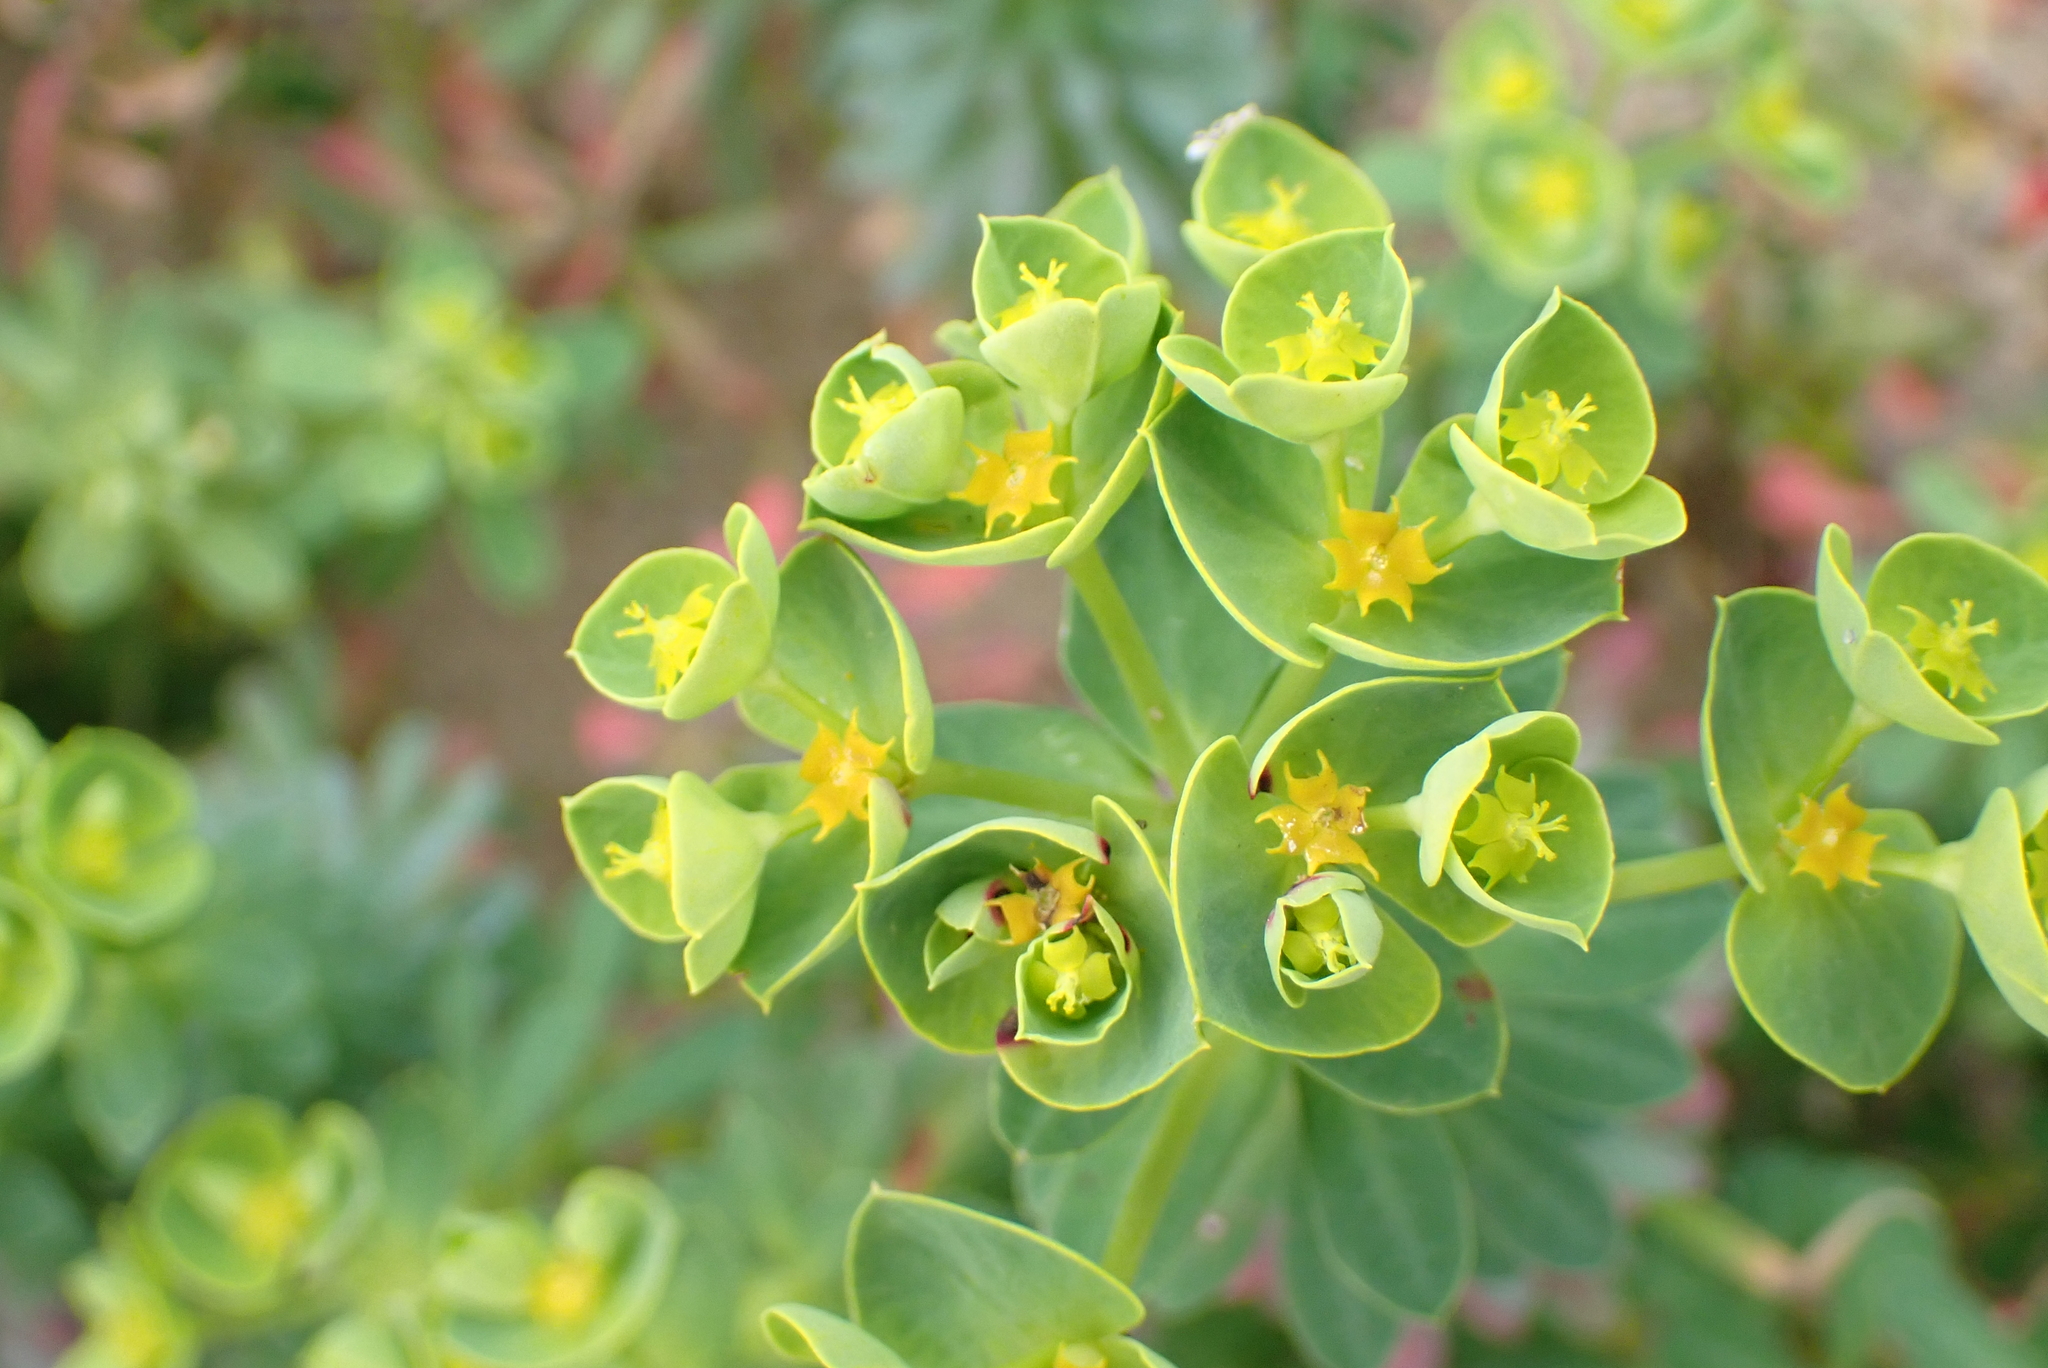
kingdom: Plantae
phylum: Tracheophyta
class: Magnoliopsida
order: Malpighiales
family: Euphorbiaceae
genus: Euphorbia
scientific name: Euphorbia portlandica
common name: Portland spurge
